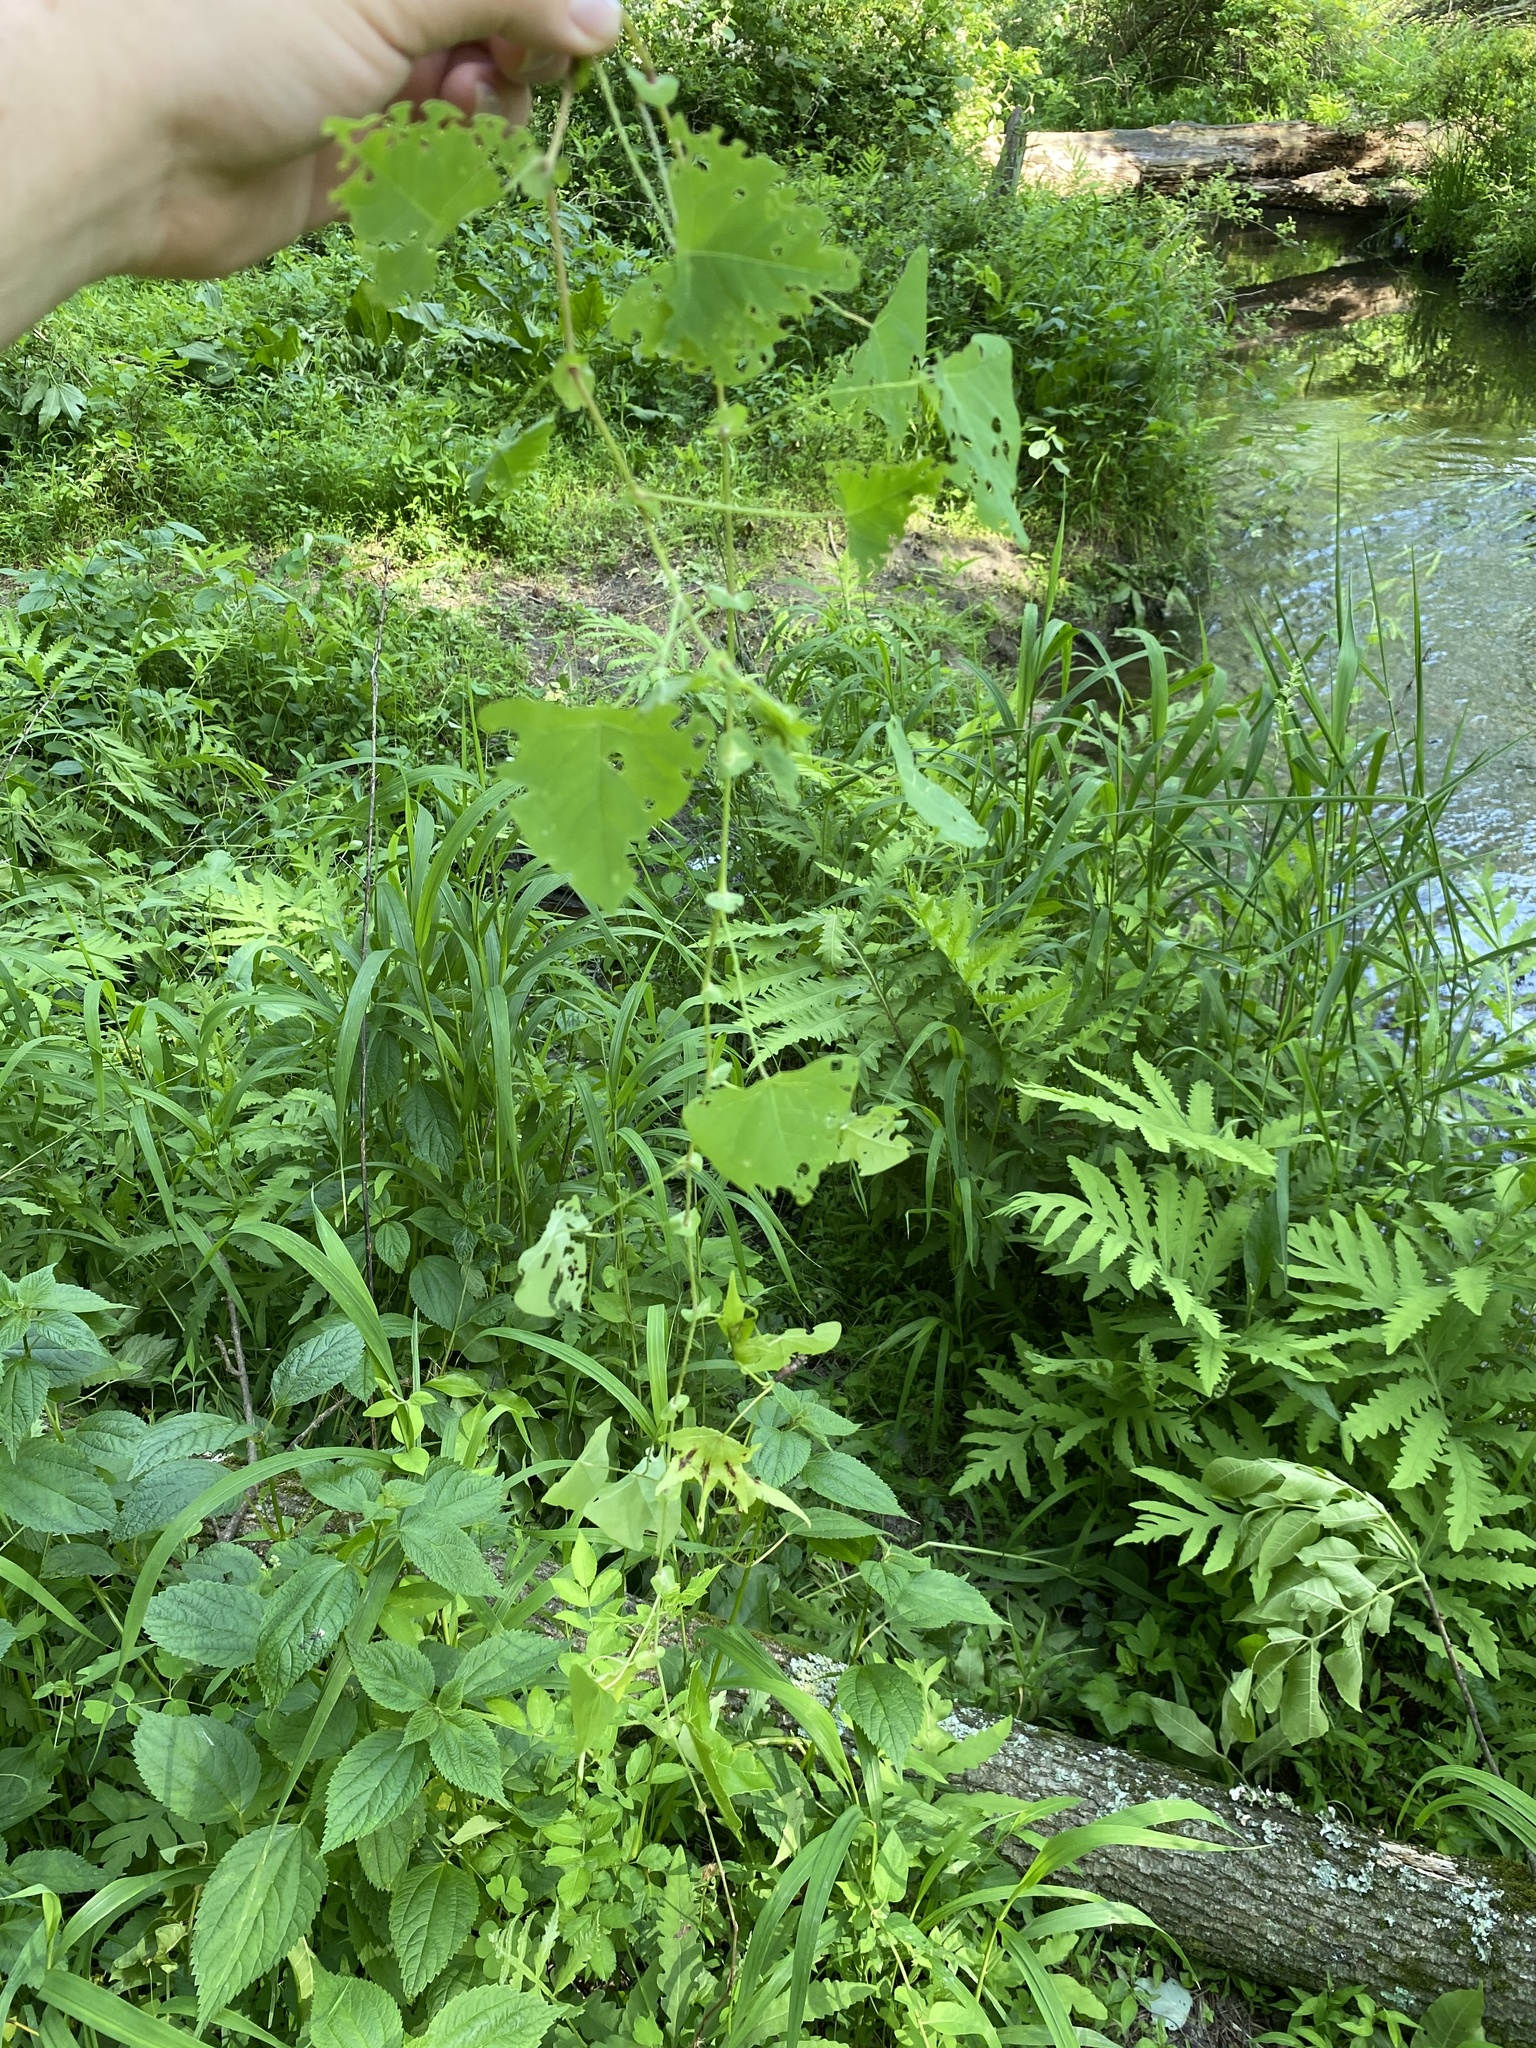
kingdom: Animalia
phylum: Arthropoda
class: Insecta
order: Coleoptera
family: Curculionidae
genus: Rhinoncomimus
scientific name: Rhinoncomimus latipes
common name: Chinese weevil
